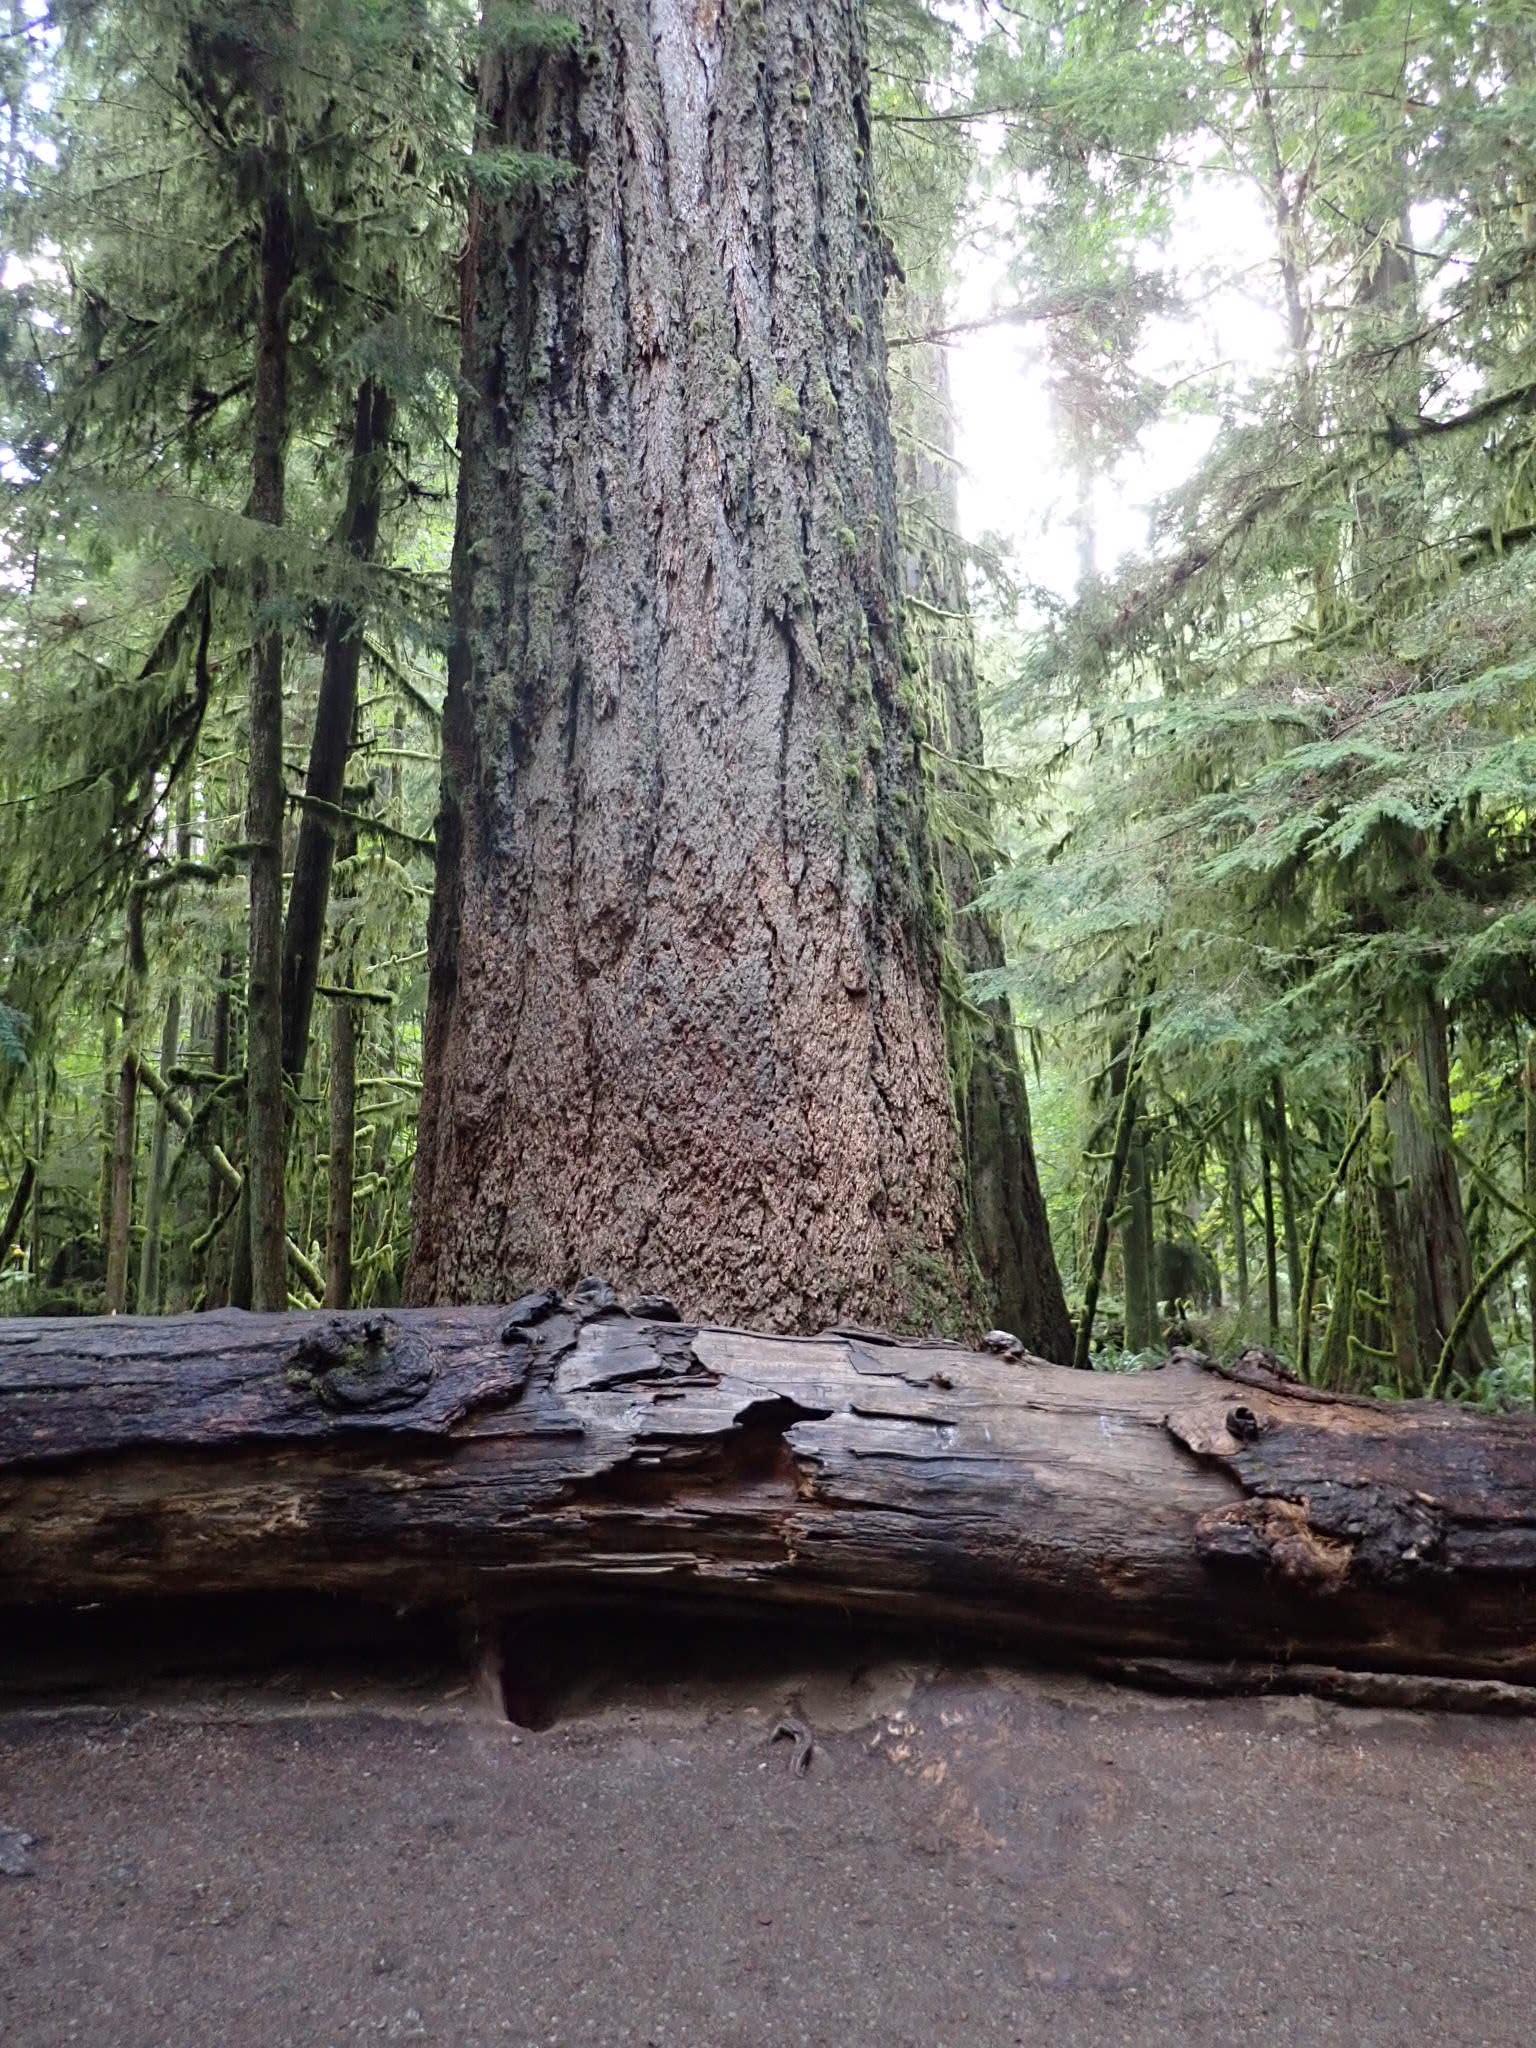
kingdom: Plantae
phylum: Tracheophyta
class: Pinopsida
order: Pinales
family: Pinaceae
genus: Pseudotsuga
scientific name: Pseudotsuga menziesii
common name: Douglas fir
